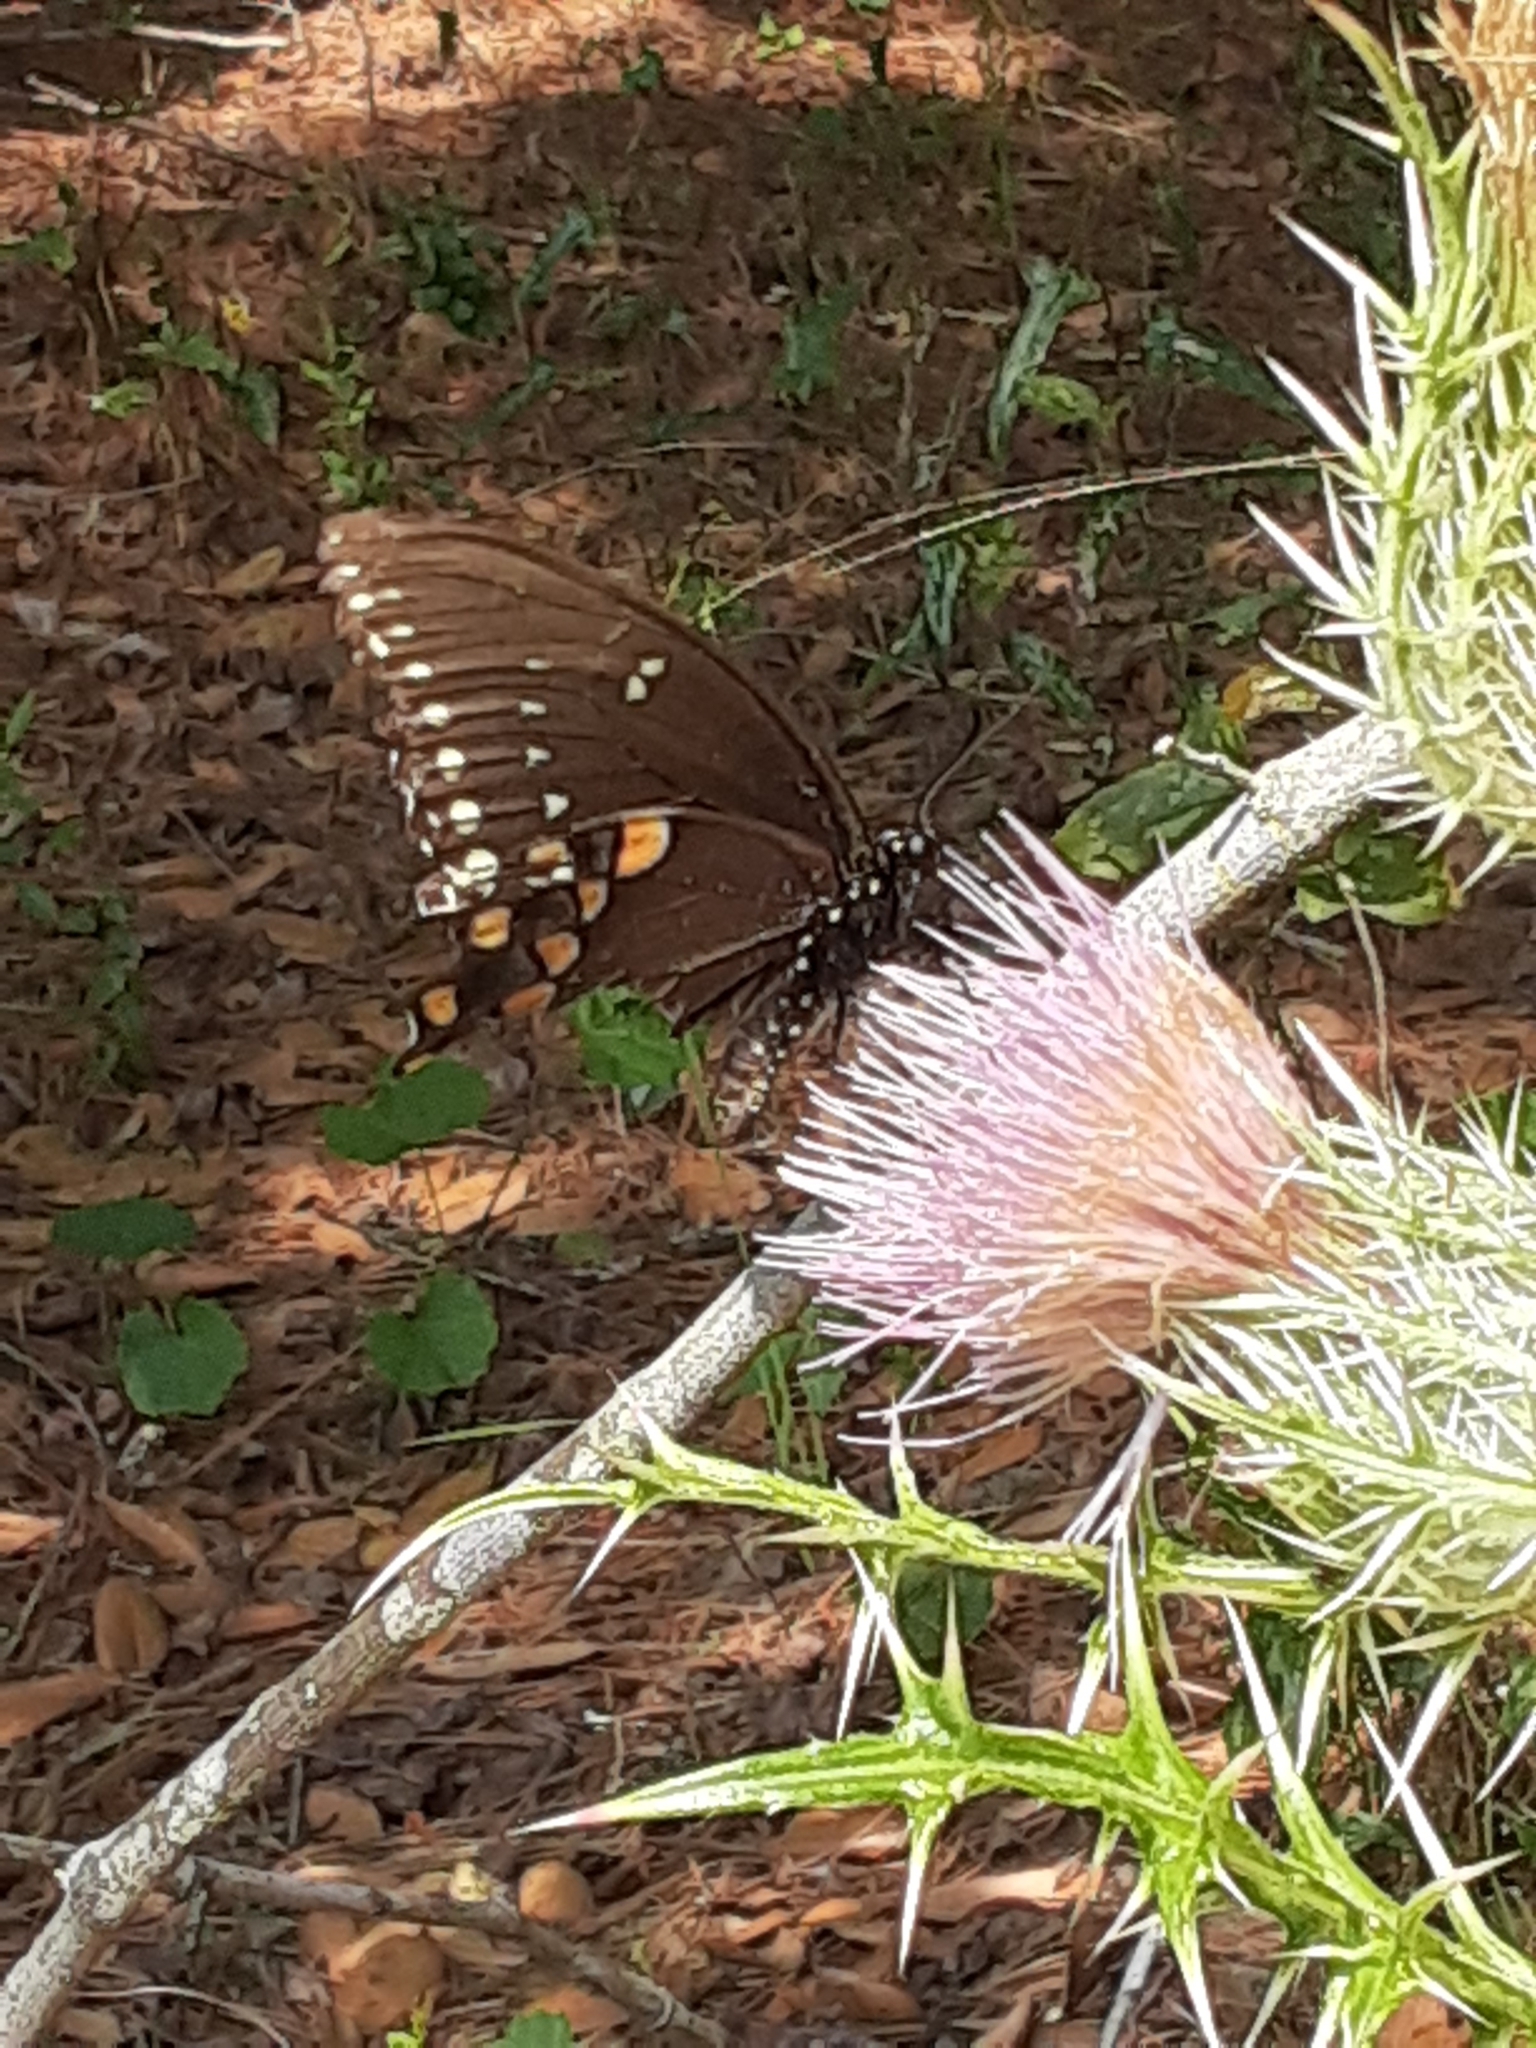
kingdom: Animalia
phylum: Arthropoda
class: Insecta
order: Lepidoptera
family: Papilionidae
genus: Papilio
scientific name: Papilio troilus
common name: Spicebush swallowtail
